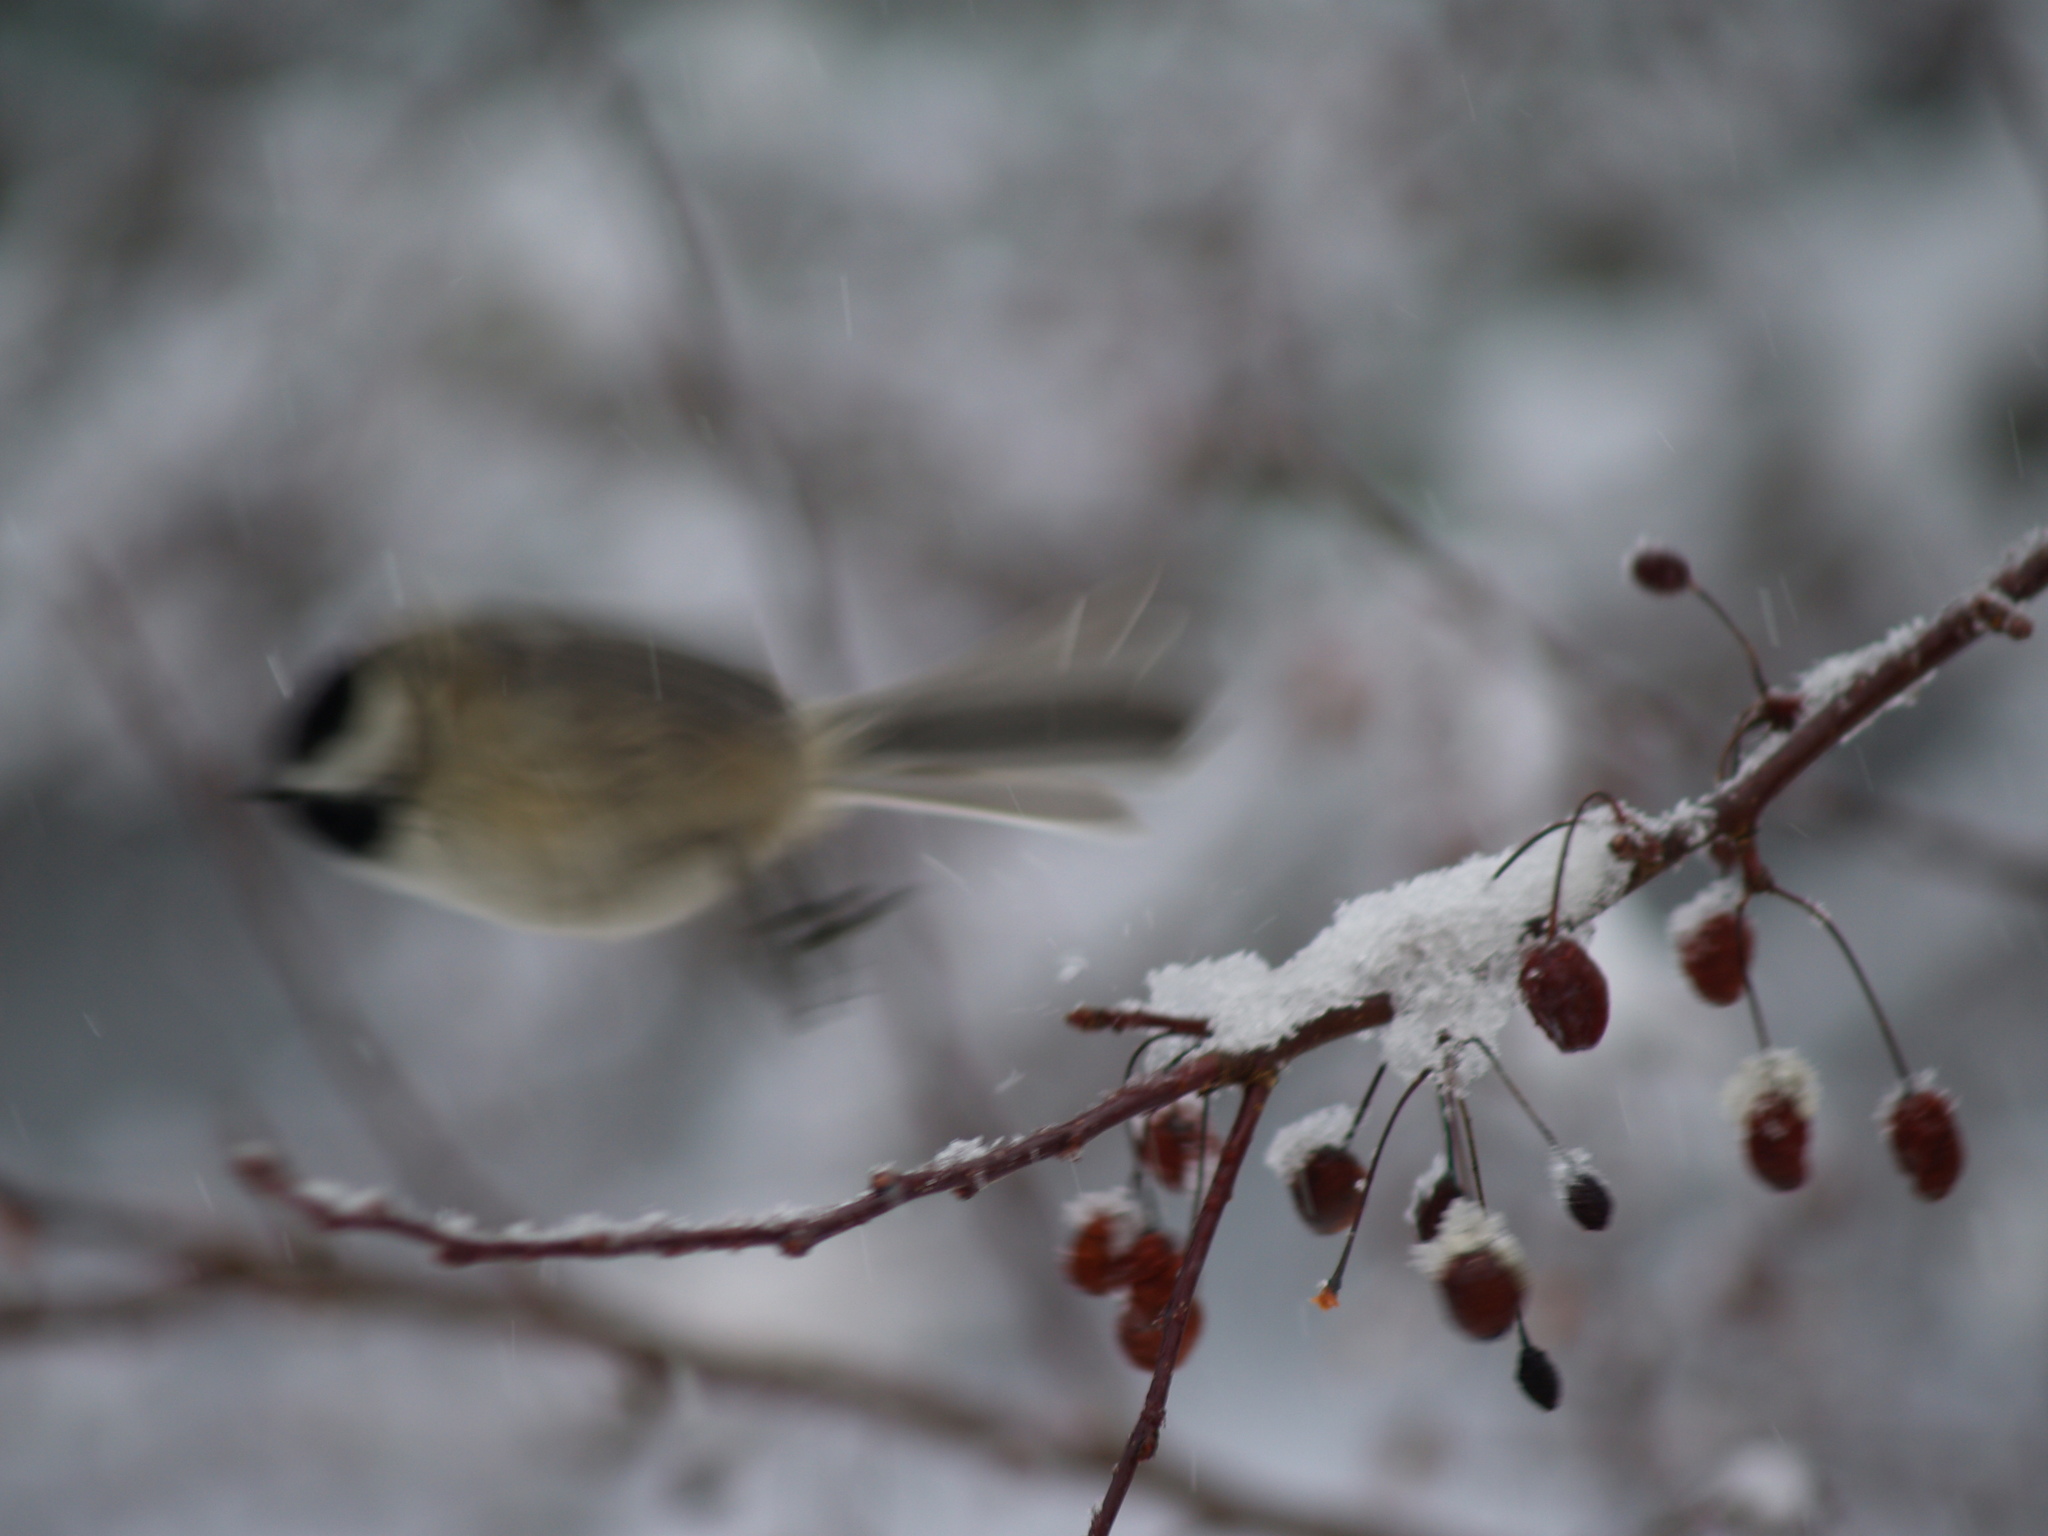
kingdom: Animalia
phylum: Chordata
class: Aves
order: Passeriformes
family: Paridae
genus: Poecile
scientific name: Poecile atricapillus
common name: Black-capped chickadee
